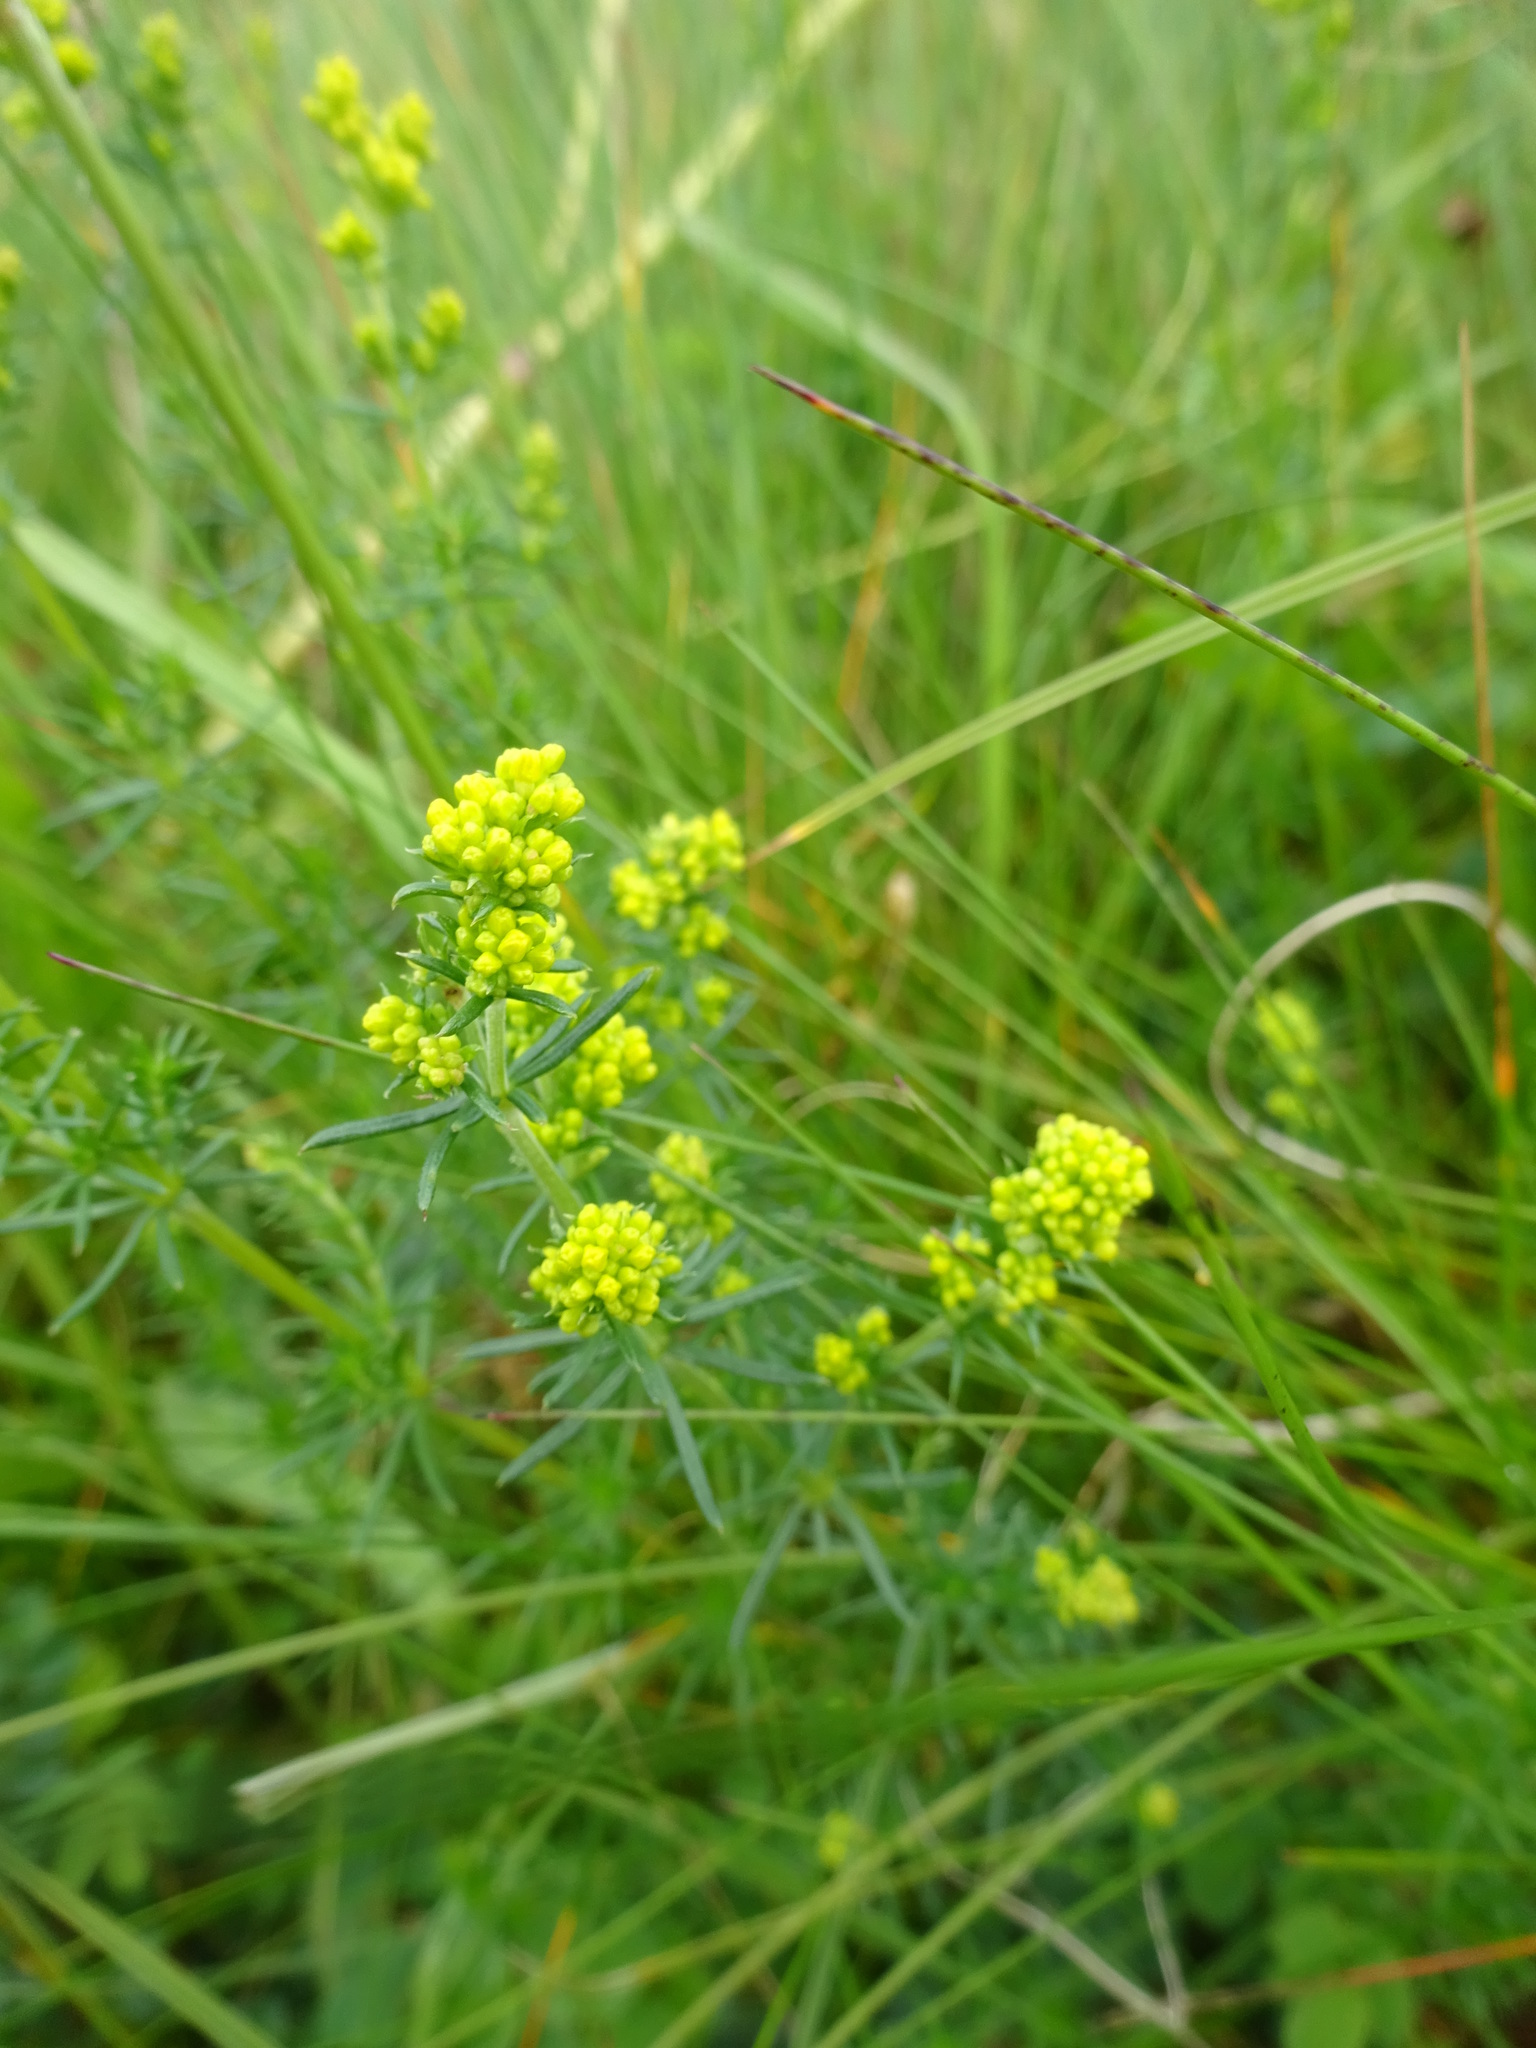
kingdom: Plantae
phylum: Tracheophyta
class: Magnoliopsida
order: Gentianales
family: Rubiaceae
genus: Galium
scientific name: Galium verum
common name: Lady's bedstraw
